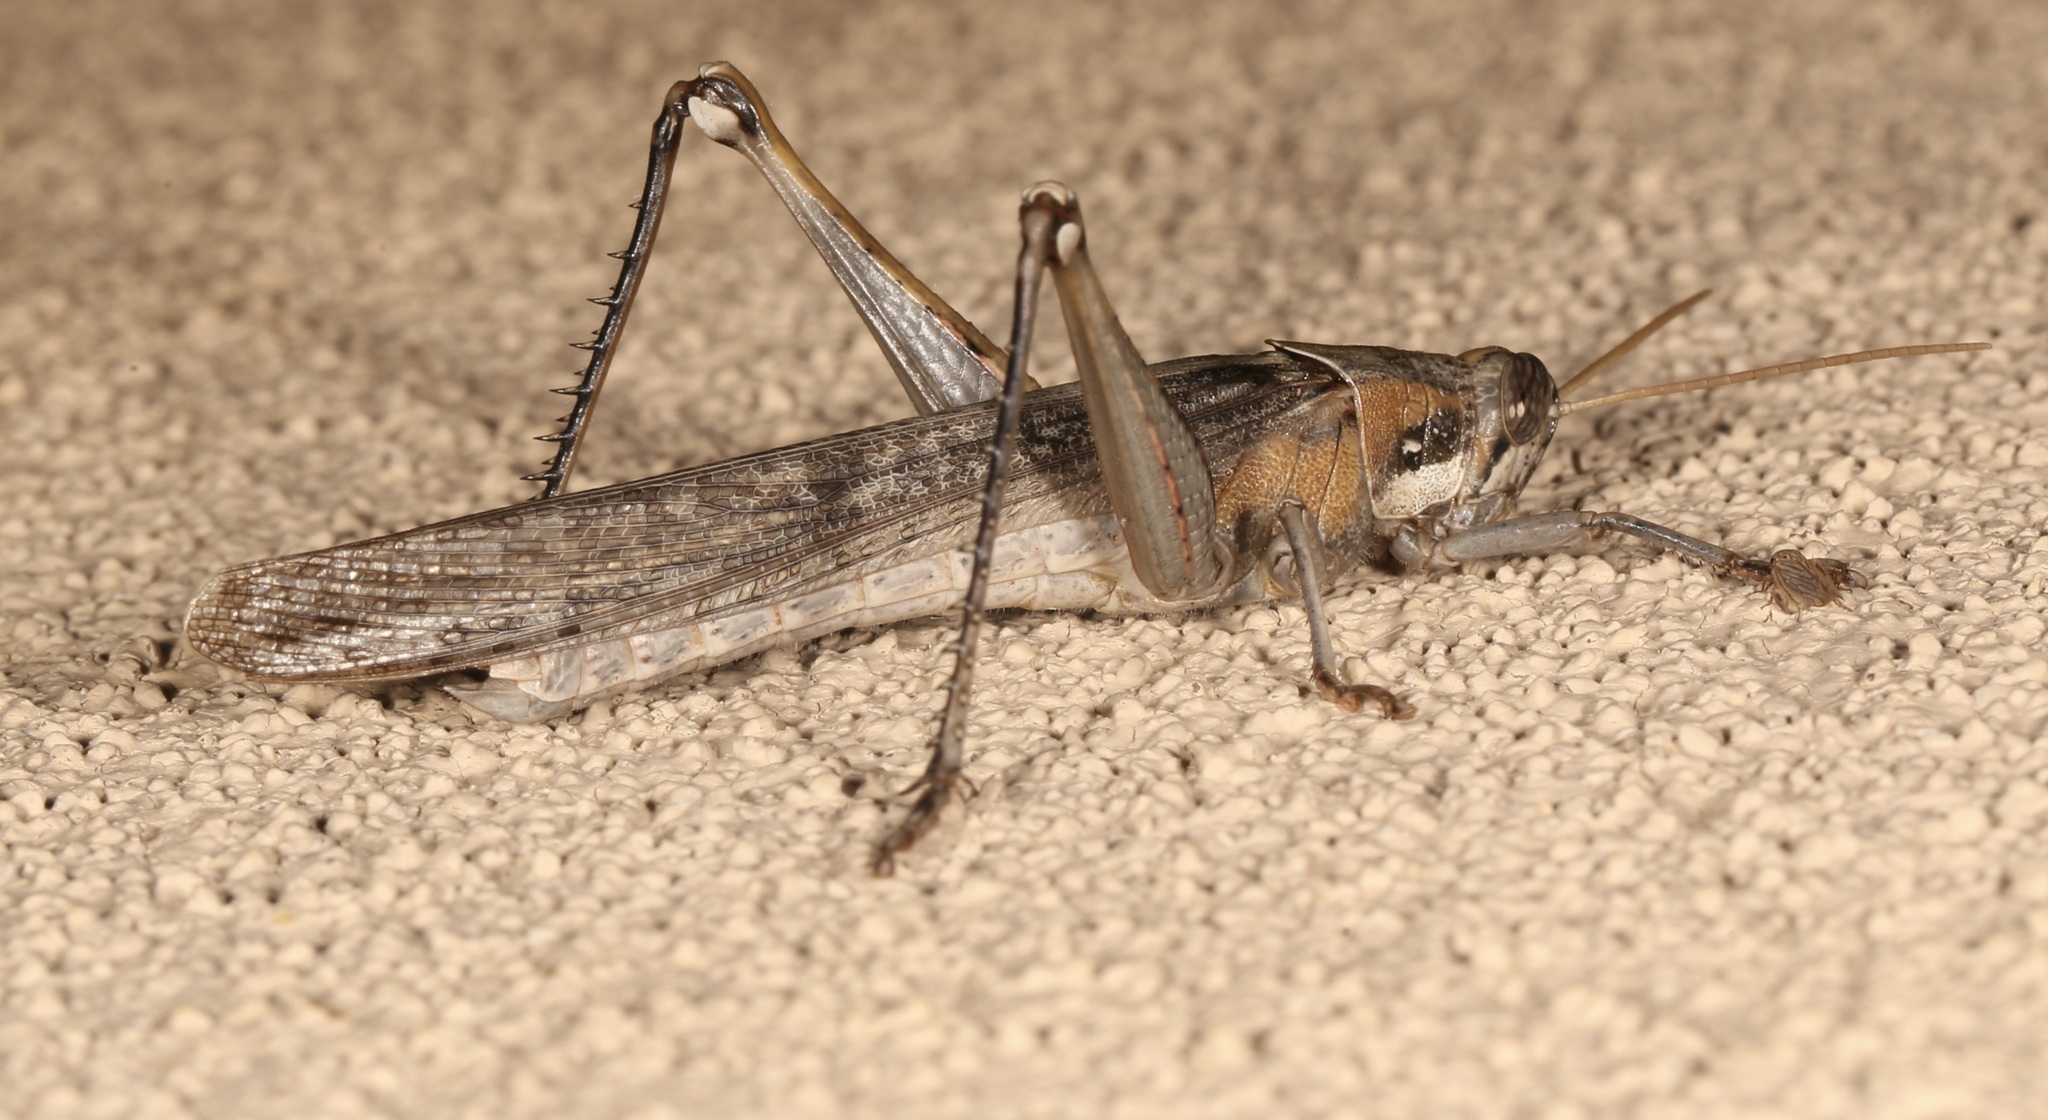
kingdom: Animalia
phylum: Arthropoda
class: Insecta
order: Orthoptera
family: Acrididae
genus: Schistocerca
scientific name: Schistocerca nitens
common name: Vagrant grasshopper
